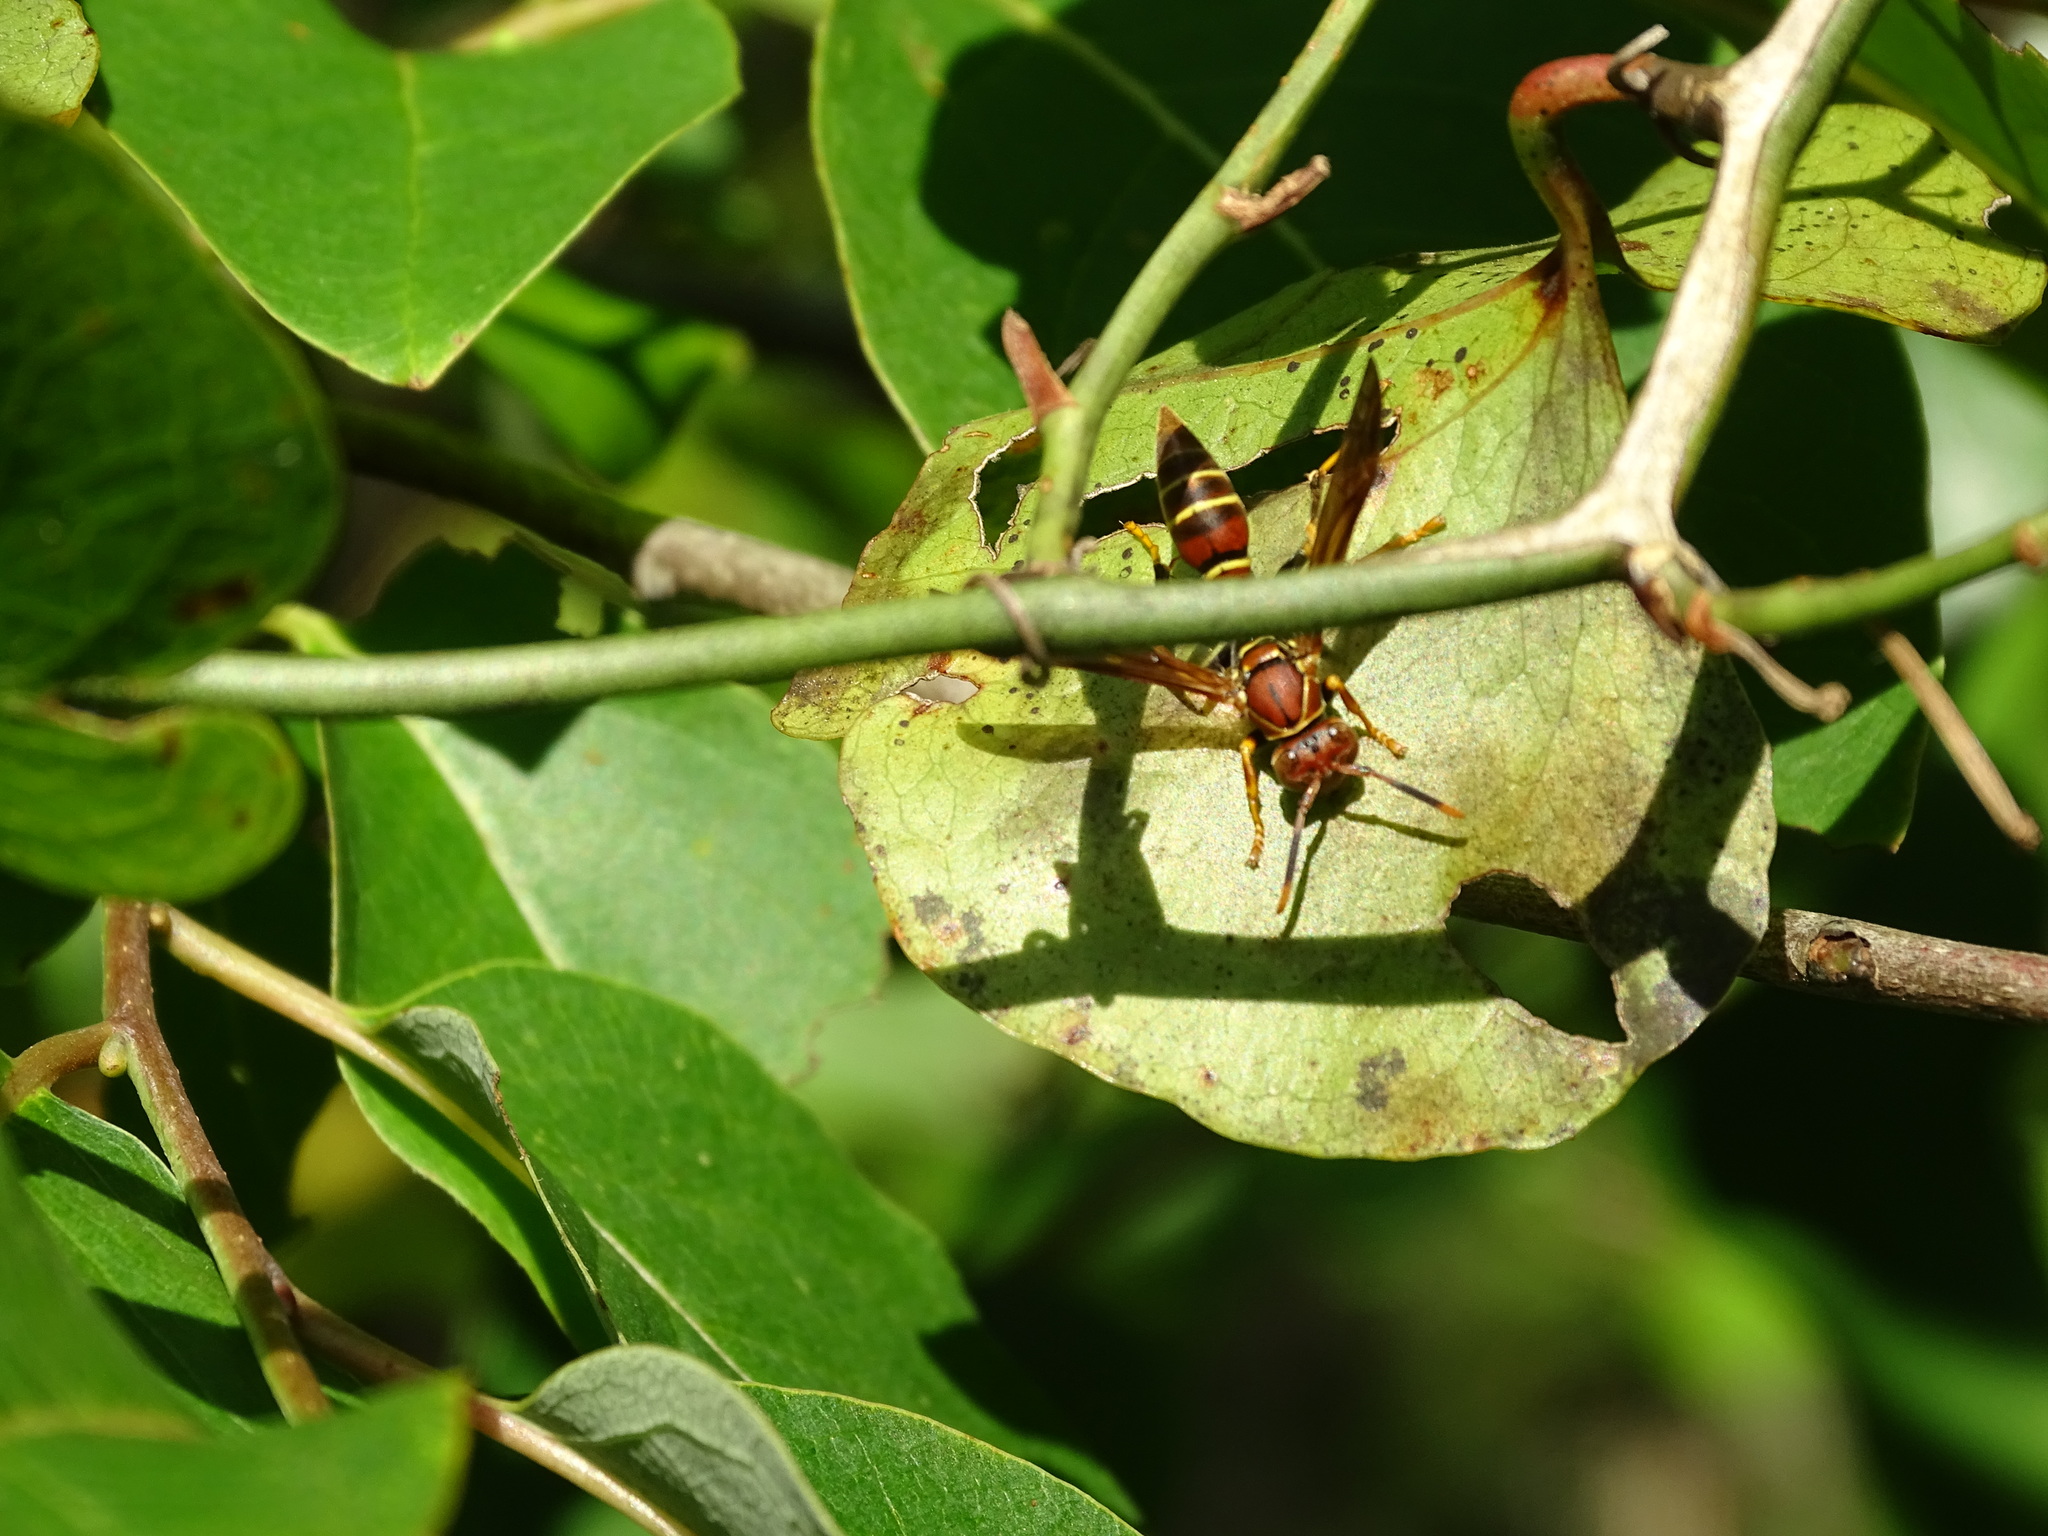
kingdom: Animalia
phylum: Arthropoda
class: Insecta
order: Hymenoptera
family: Eumenidae
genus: Polistes
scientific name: Polistes bahamensis
